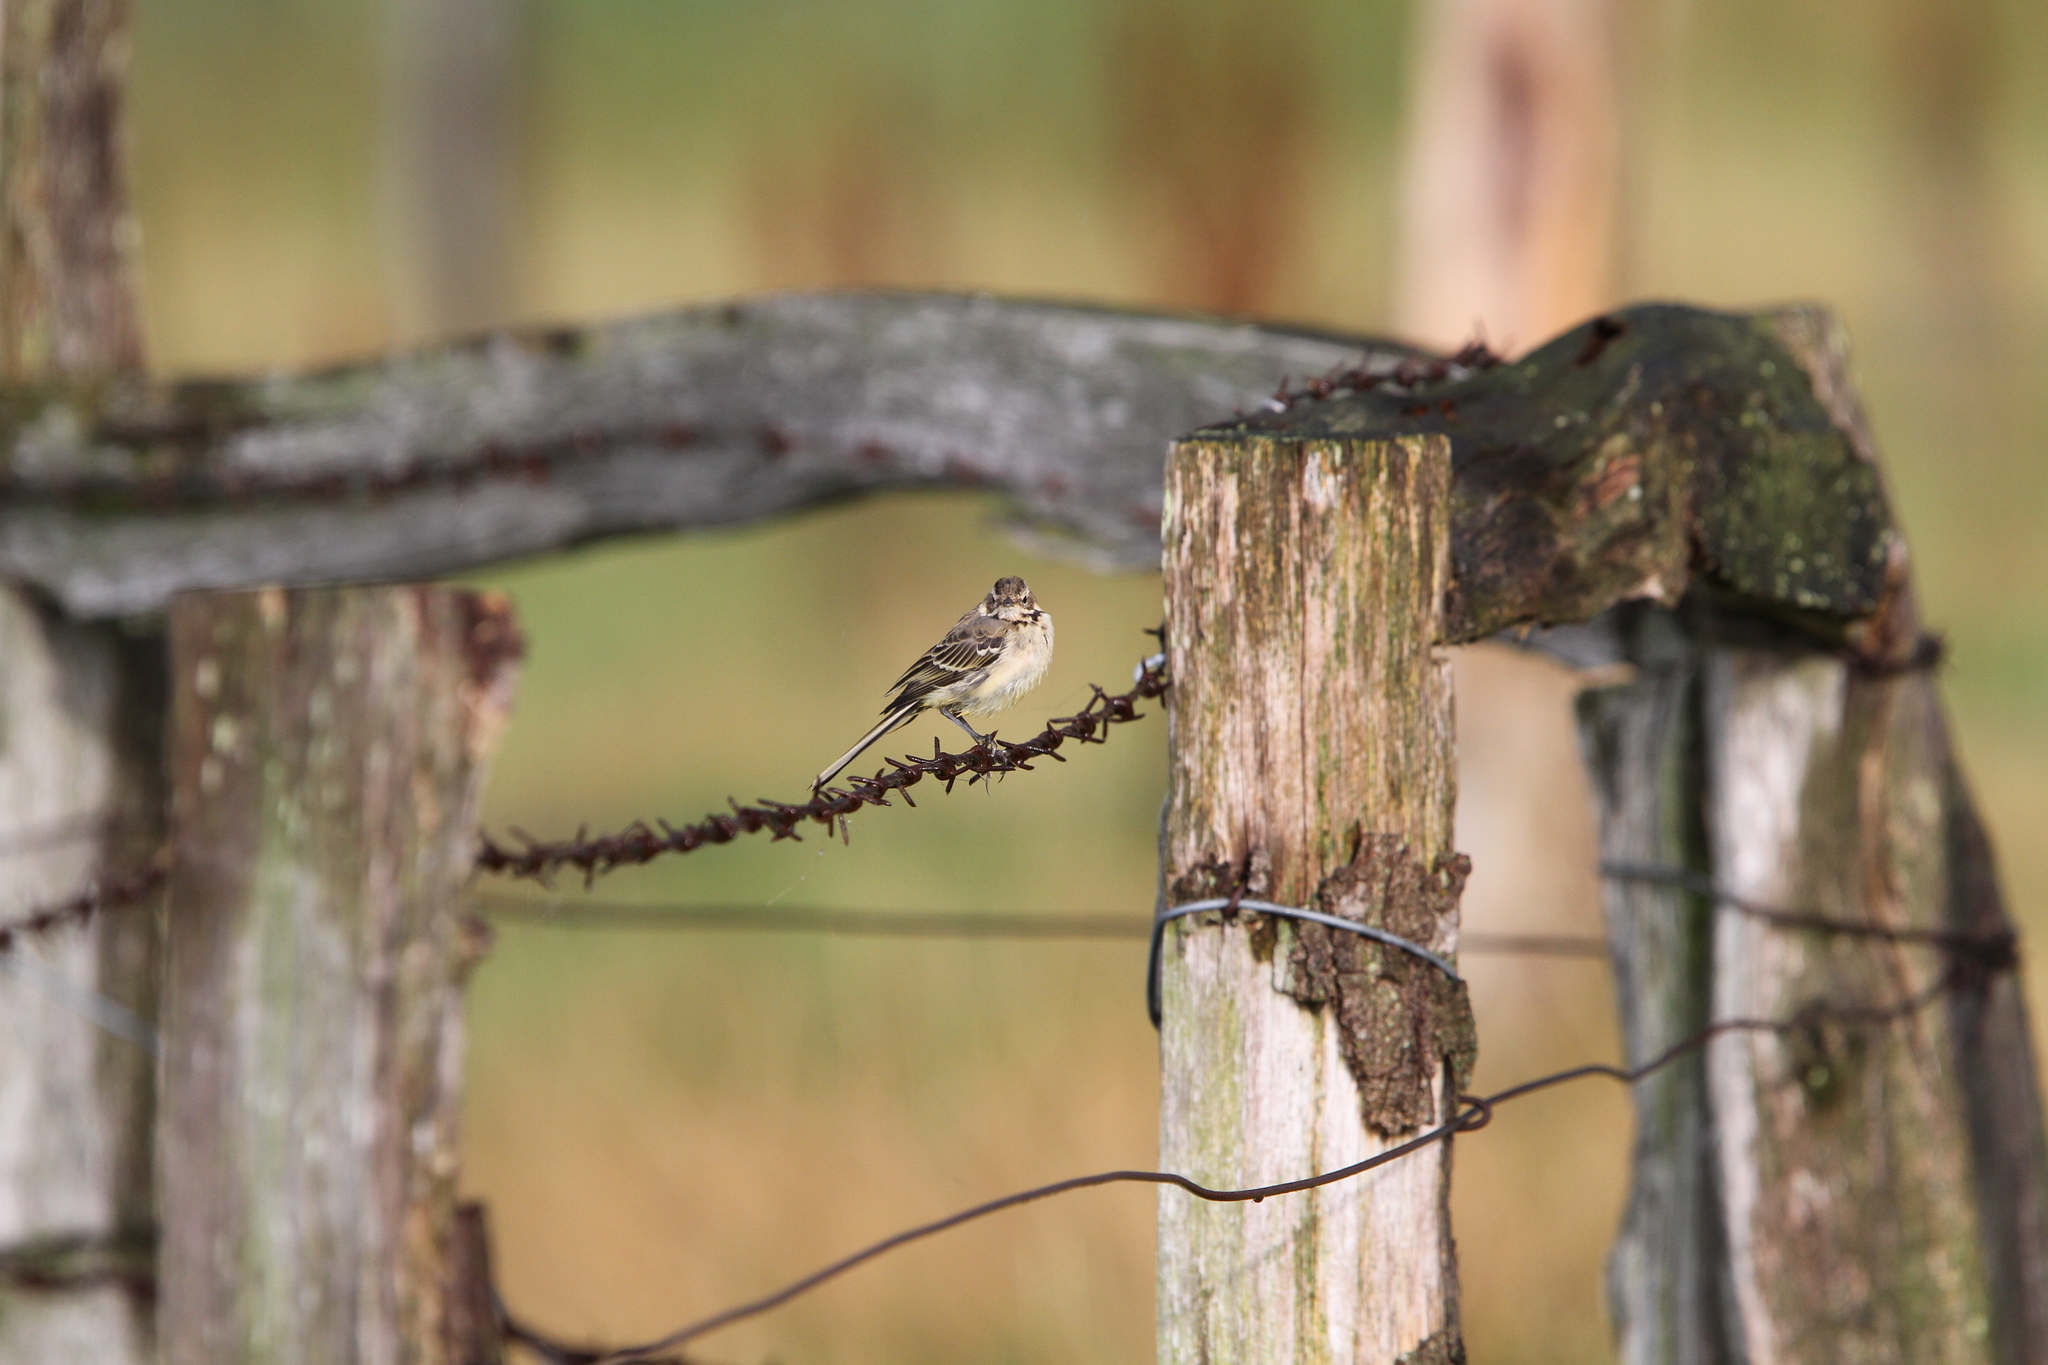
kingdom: Animalia
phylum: Chordata
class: Aves
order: Passeriformes
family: Motacillidae
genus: Motacilla
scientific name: Motacilla alba
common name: White wagtail
